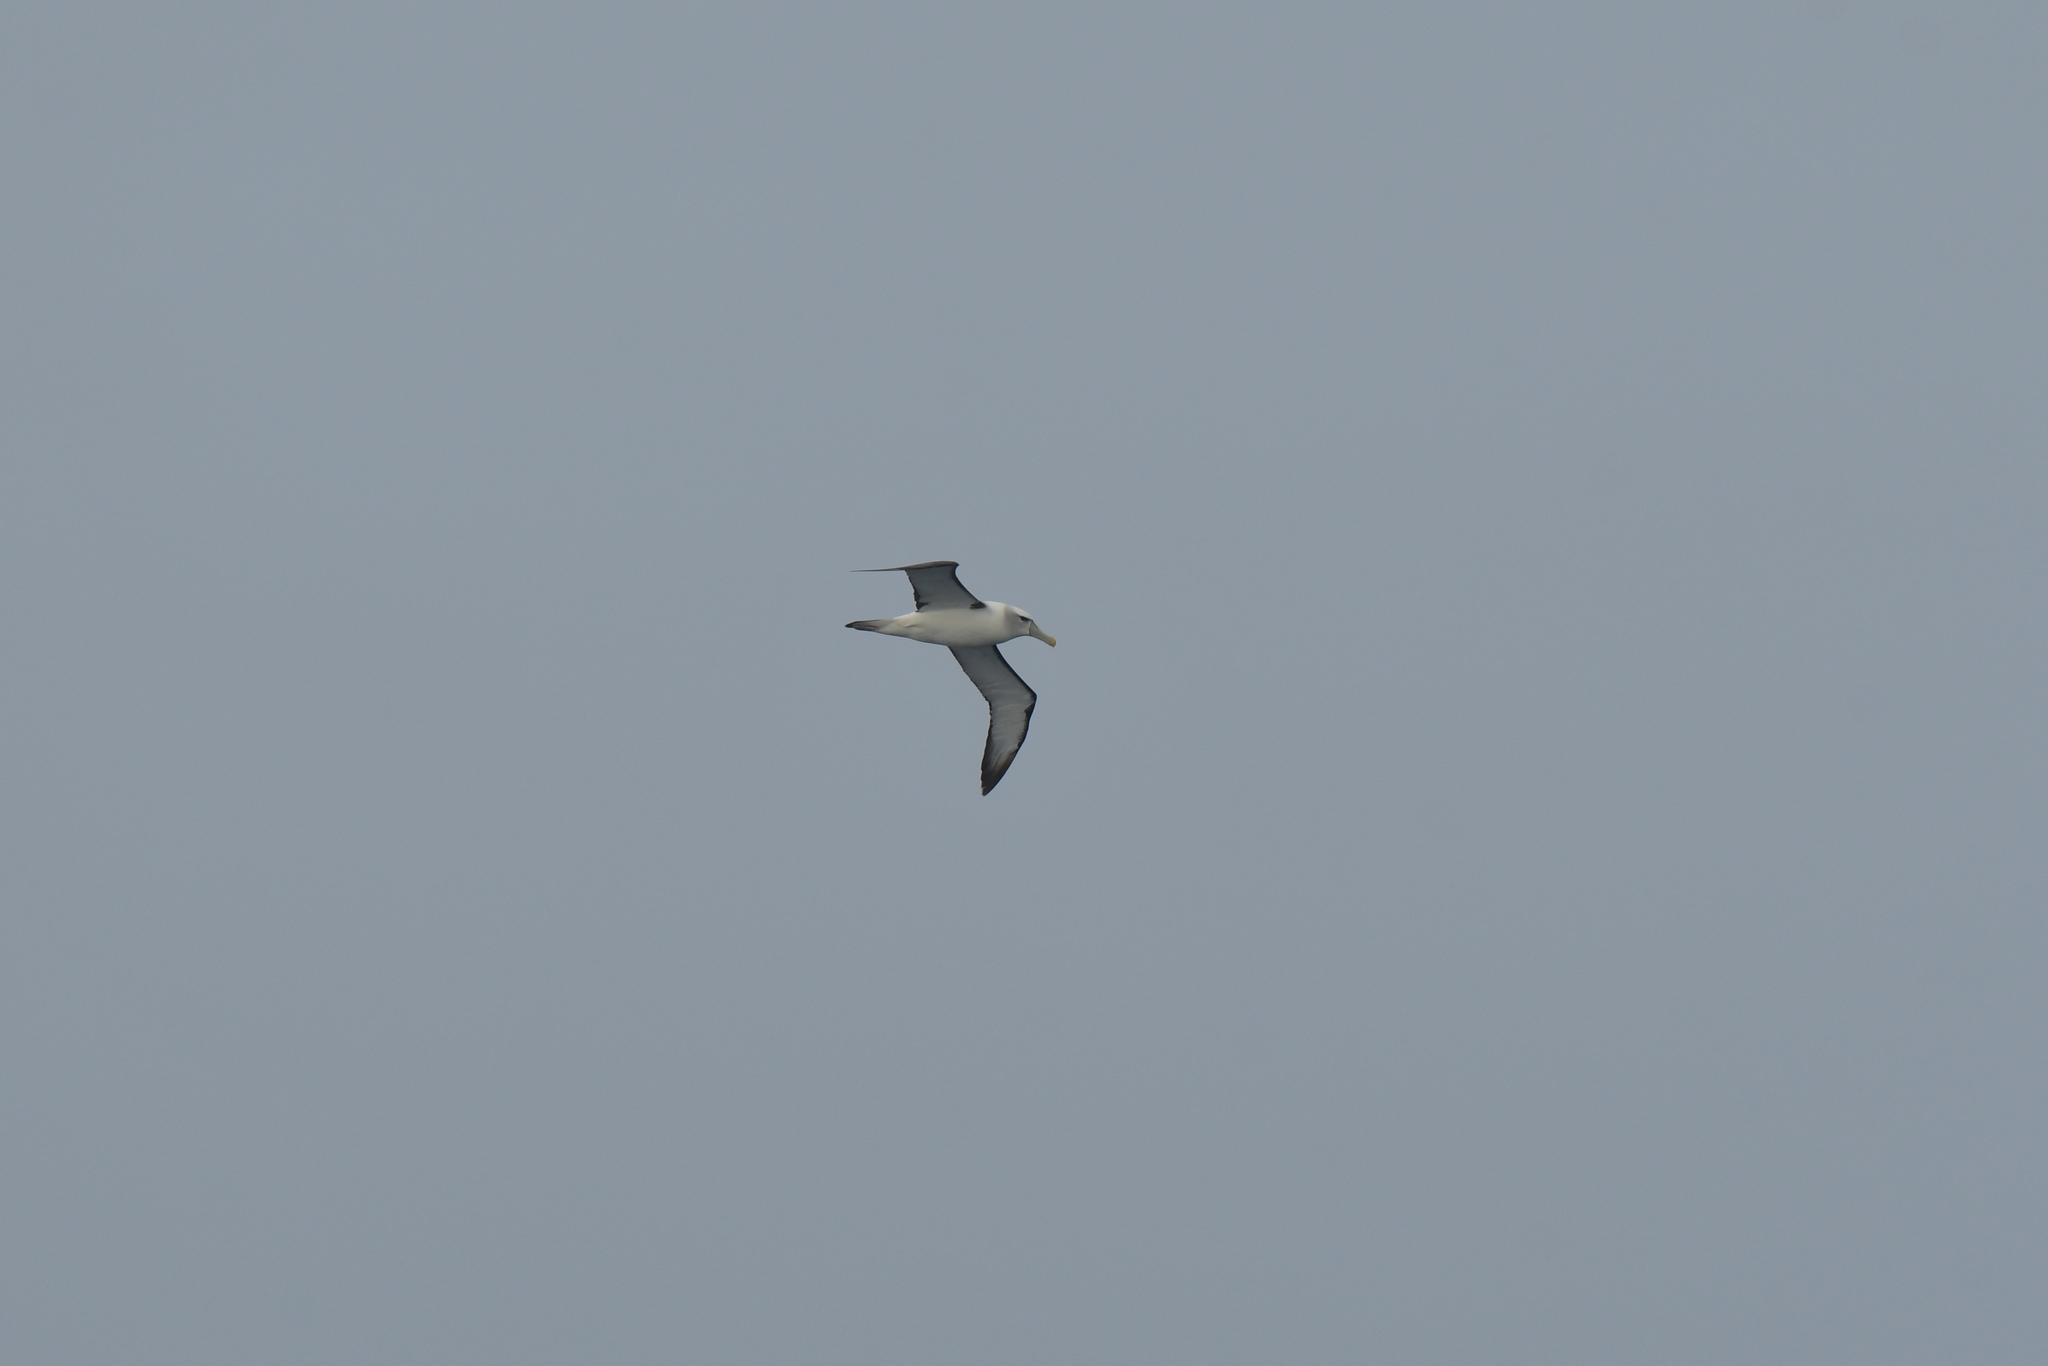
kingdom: Animalia
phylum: Chordata
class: Aves
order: Procellariiformes
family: Diomedeidae
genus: Thalassarche
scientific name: Thalassarche cauta
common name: Shy albatross
